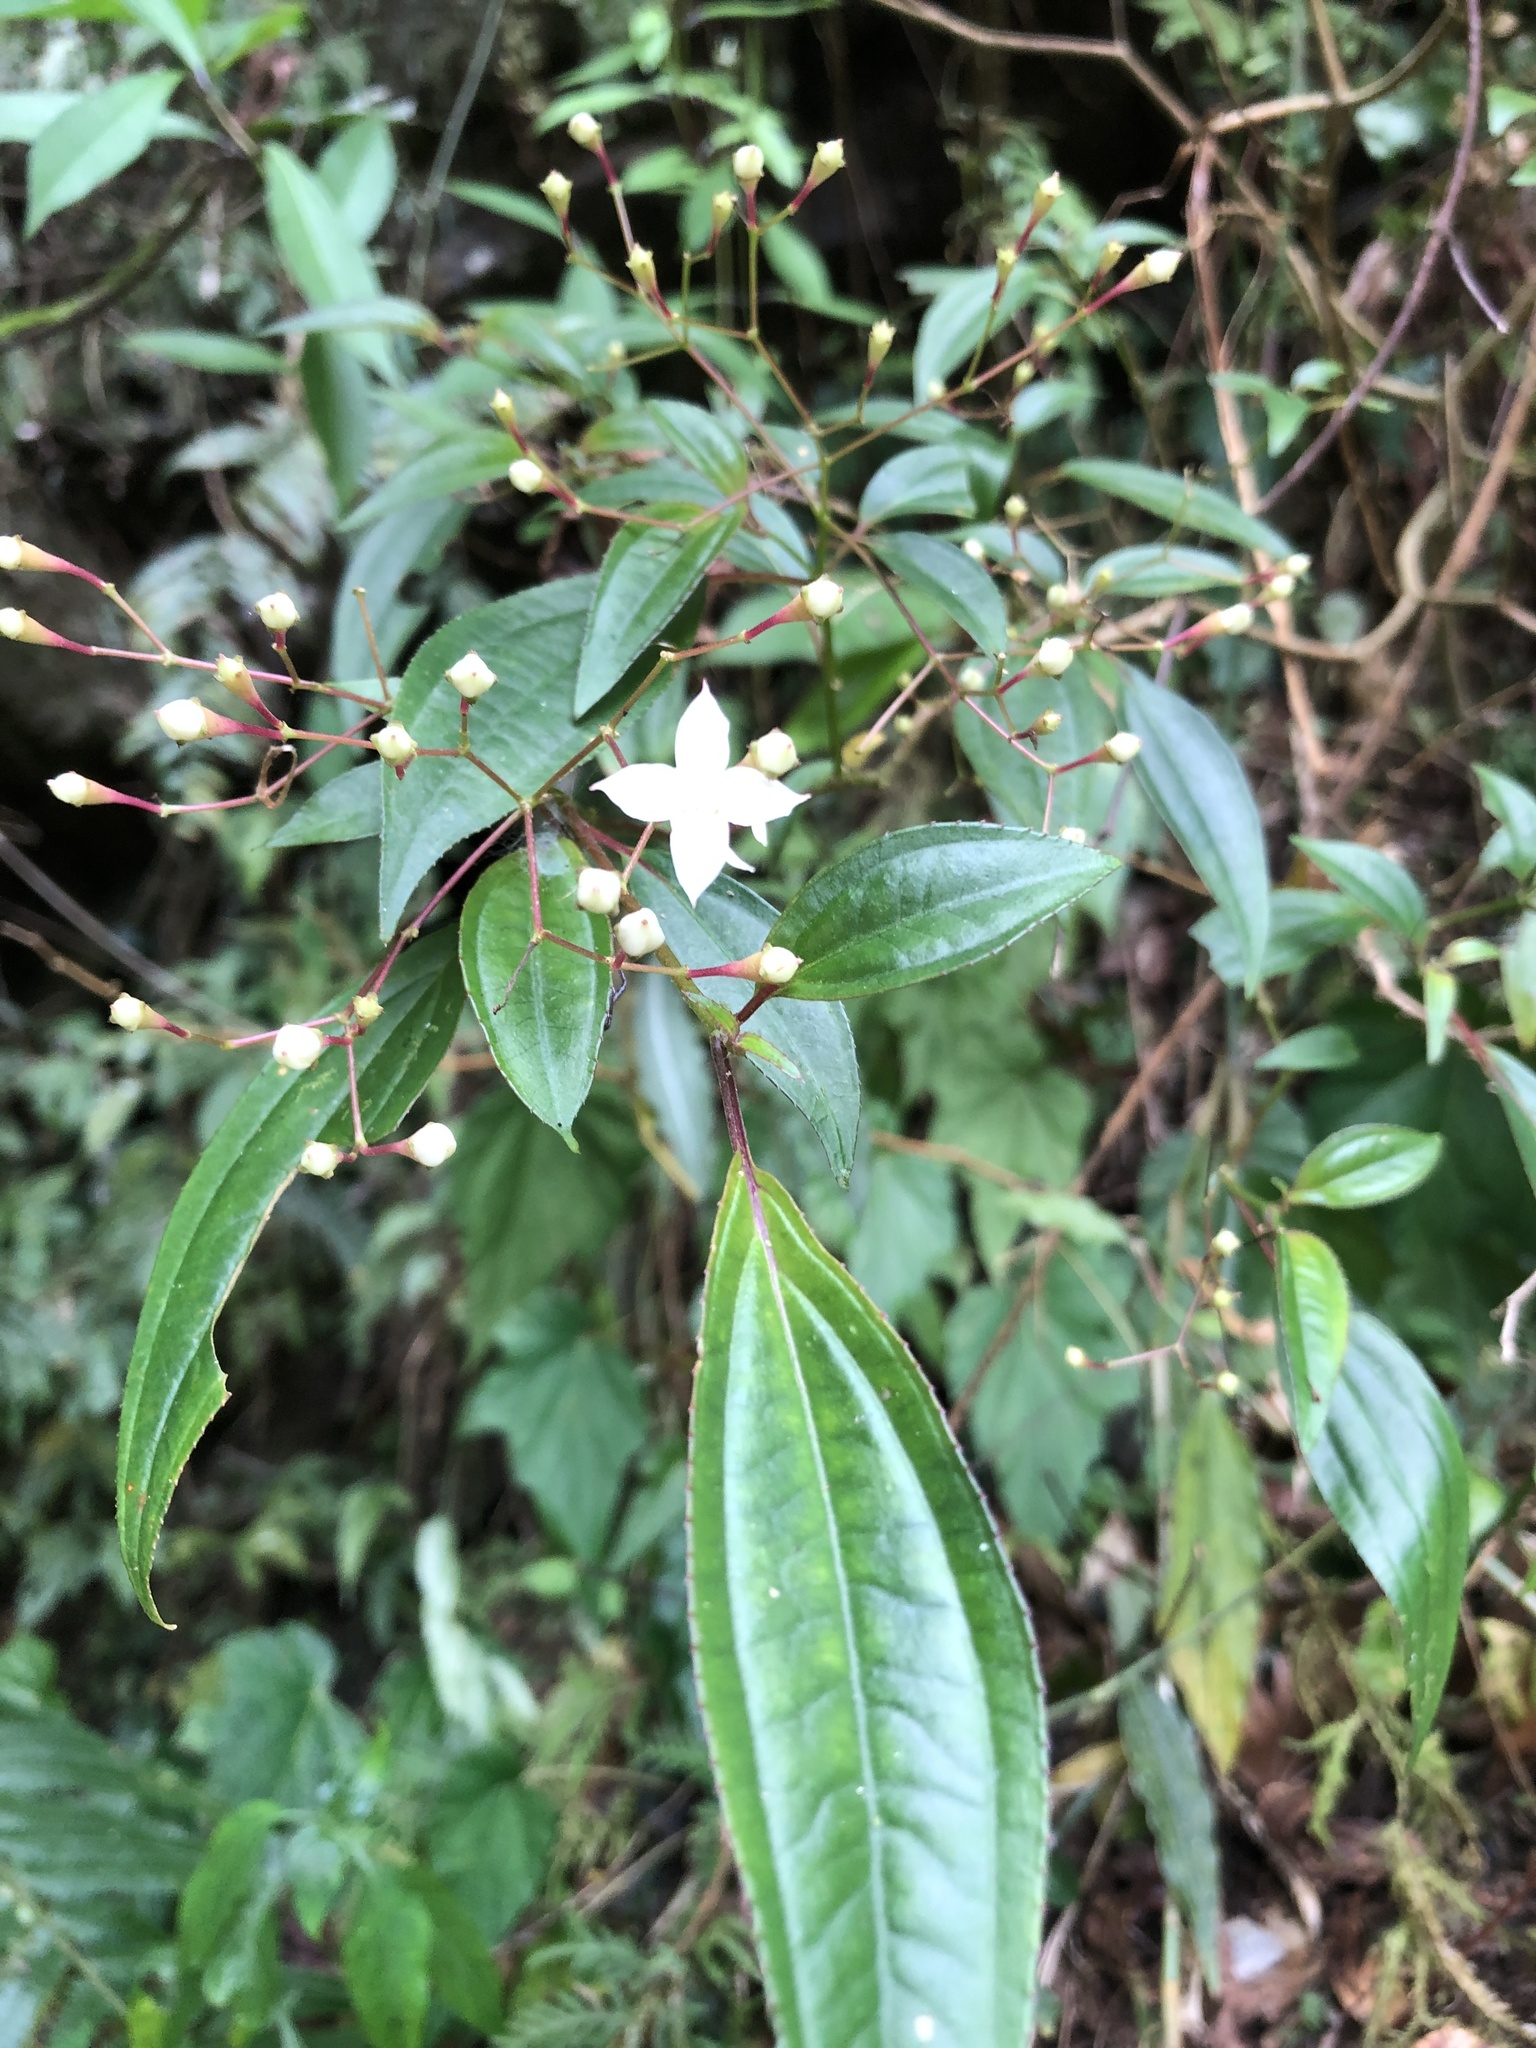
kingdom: Plantae
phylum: Tracheophyta
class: Magnoliopsida
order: Myrtales
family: Melastomataceae
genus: Bredia
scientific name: Bredia oldhamii
